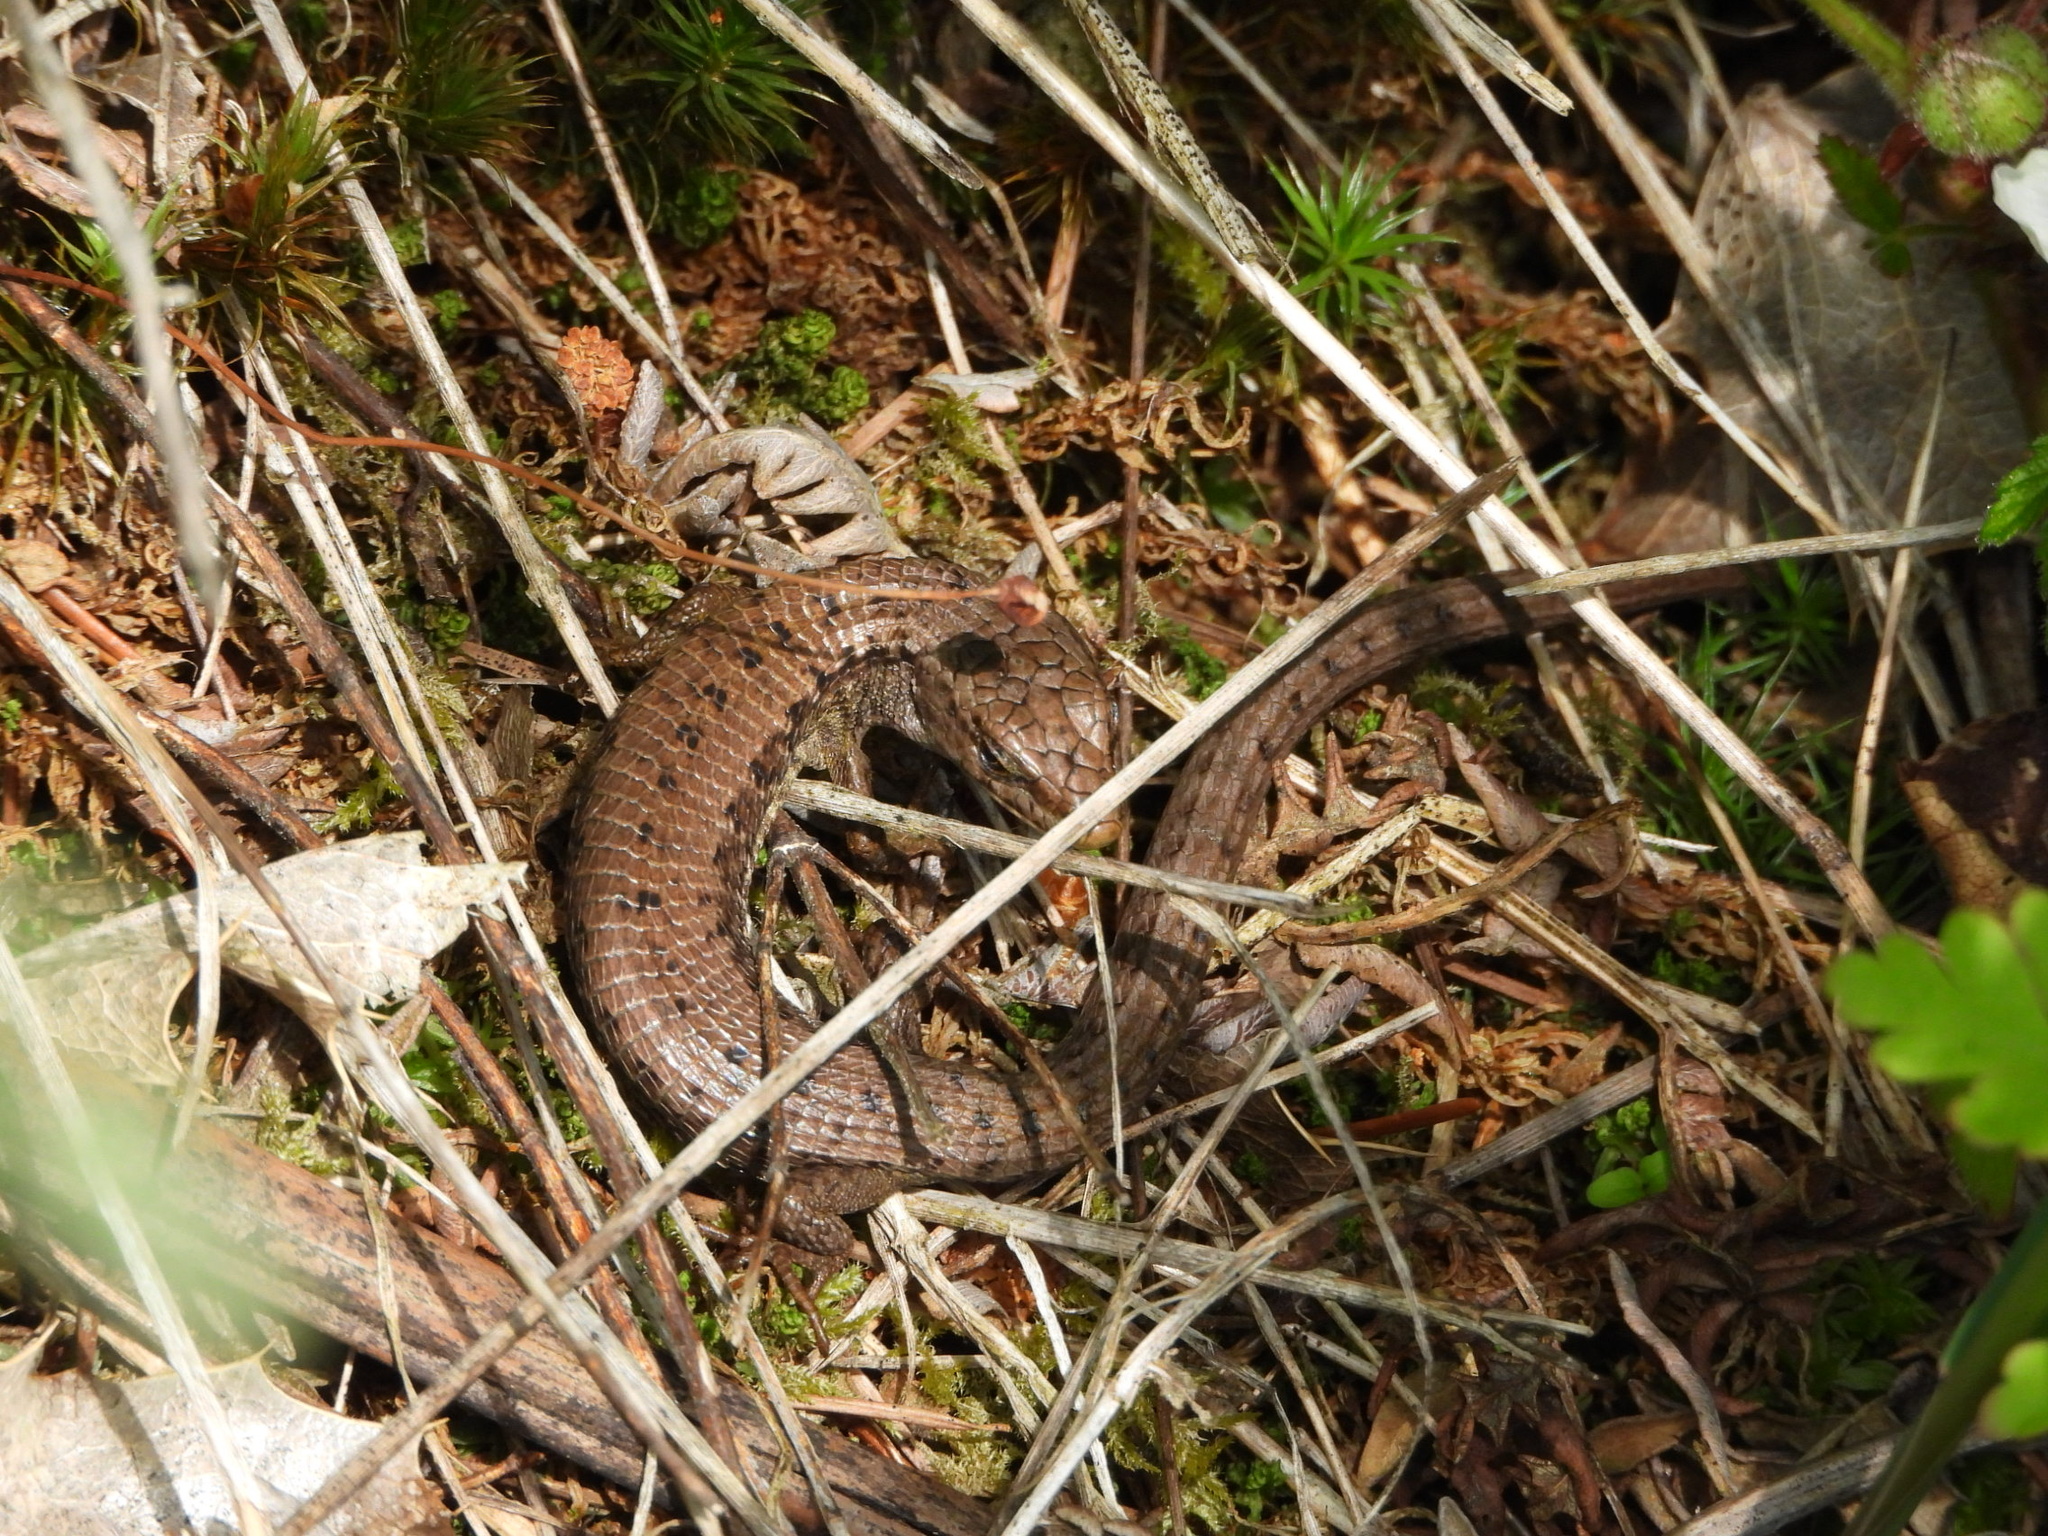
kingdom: Animalia
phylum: Chordata
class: Squamata
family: Anguidae
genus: Elgaria
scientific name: Elgaria coerulea
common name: Northern alligator lizard
